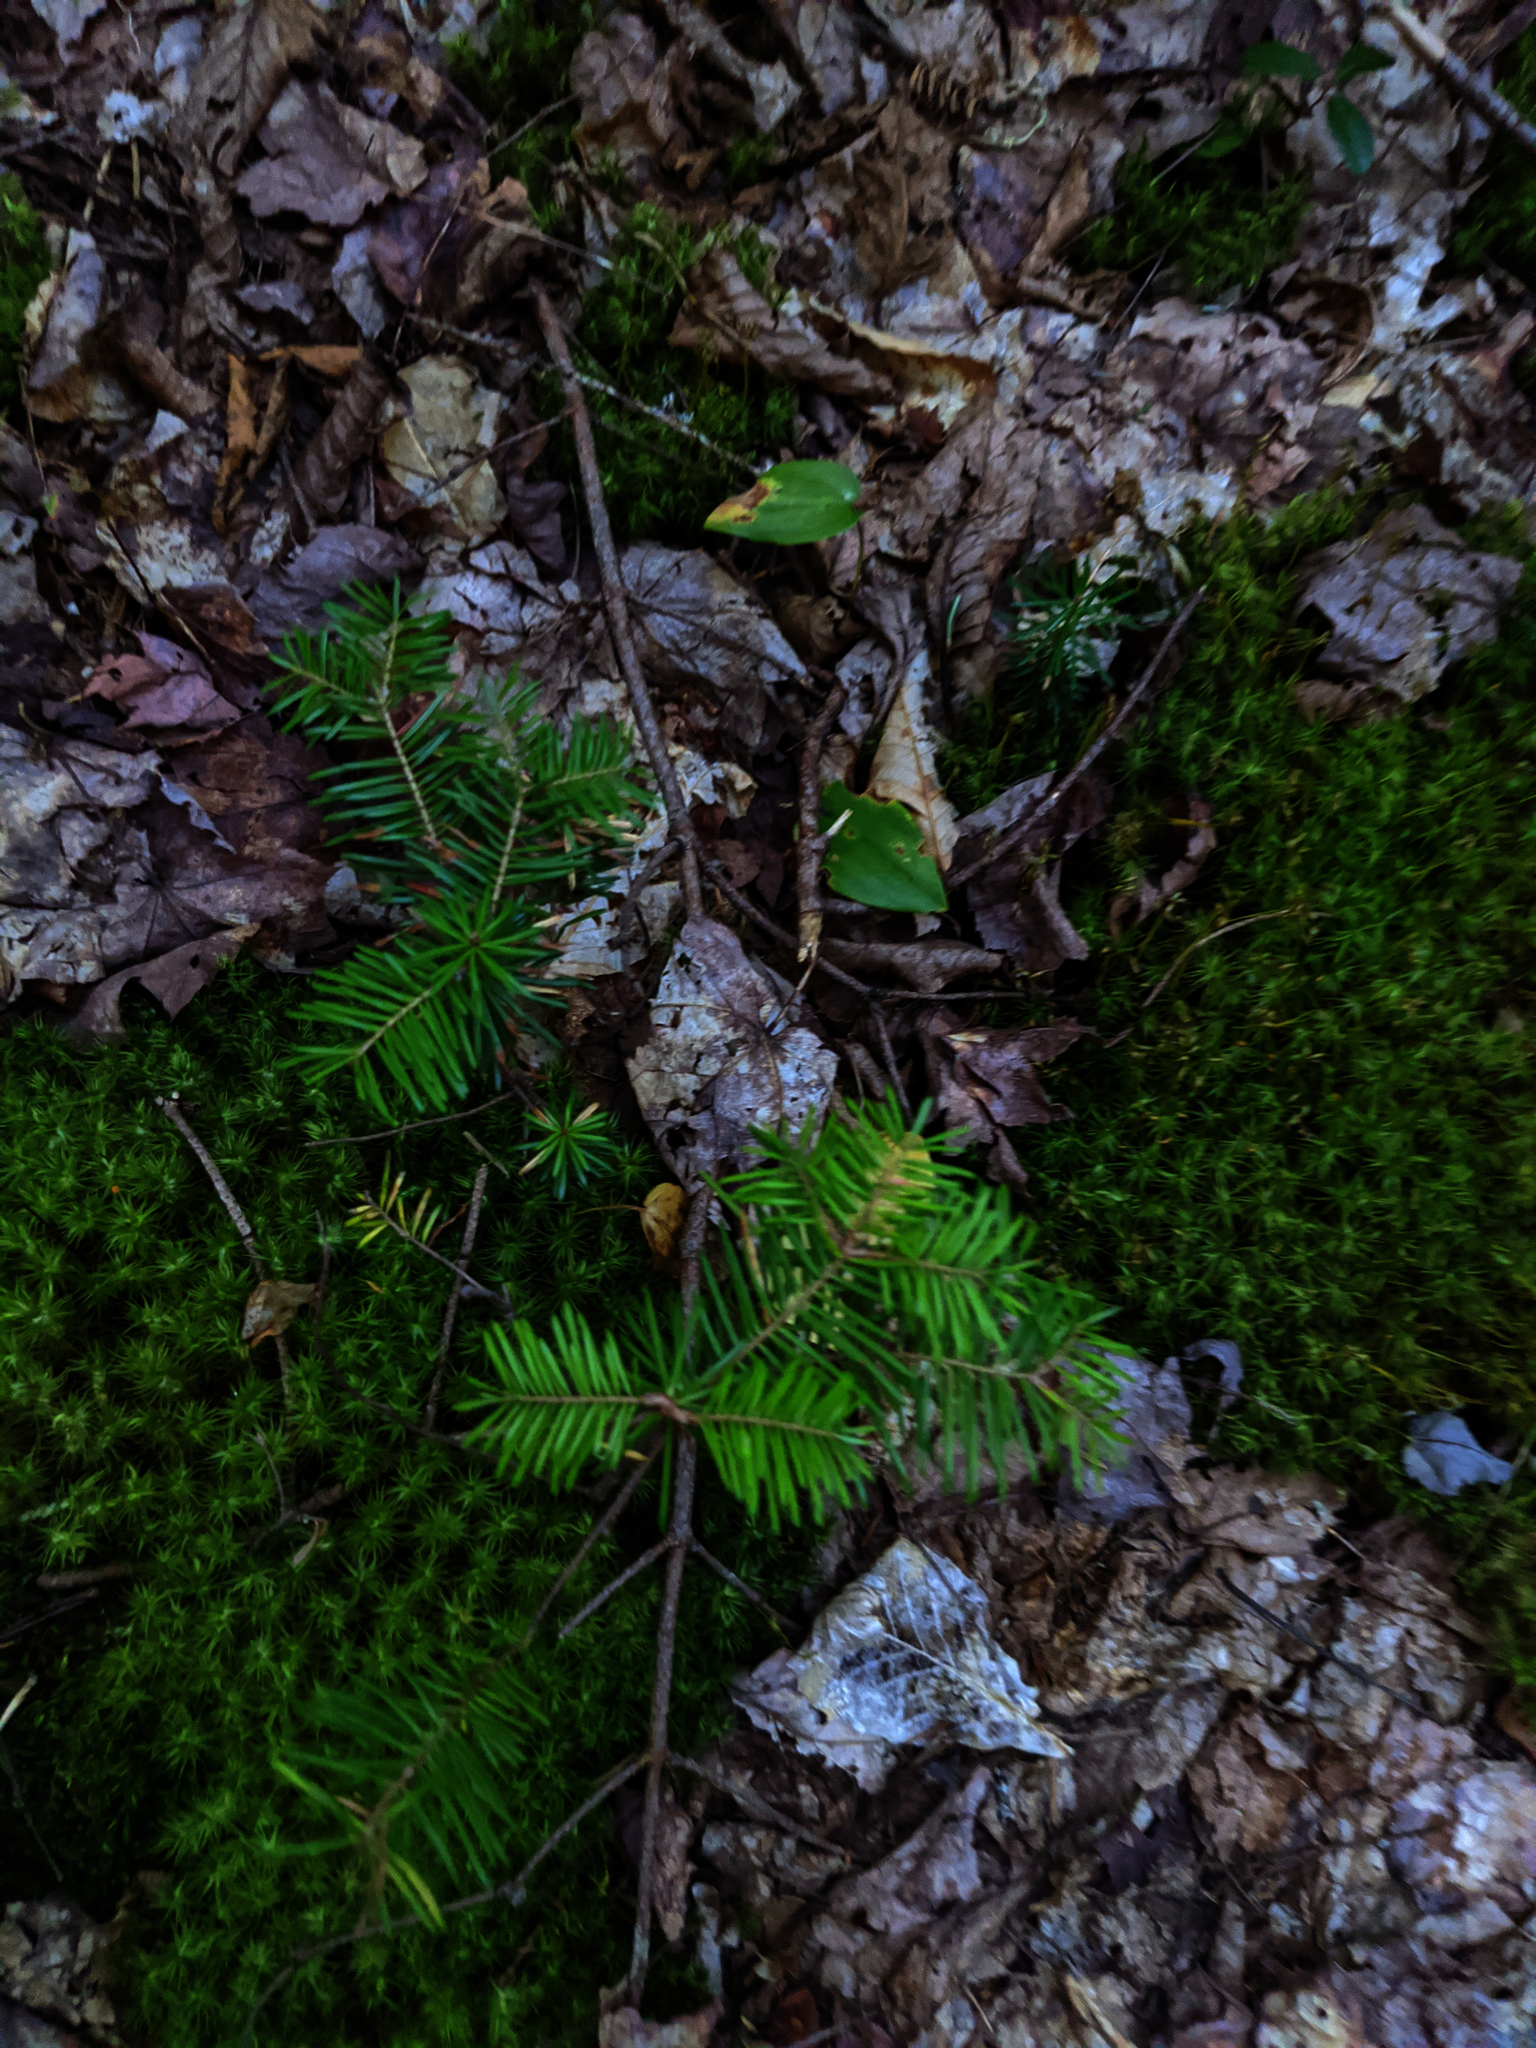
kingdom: Plantae
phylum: Tracheophyta
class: Pinopsida
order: Pinales
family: Pinaceae
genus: Abies
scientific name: Abies balsamea
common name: Balsam fir
